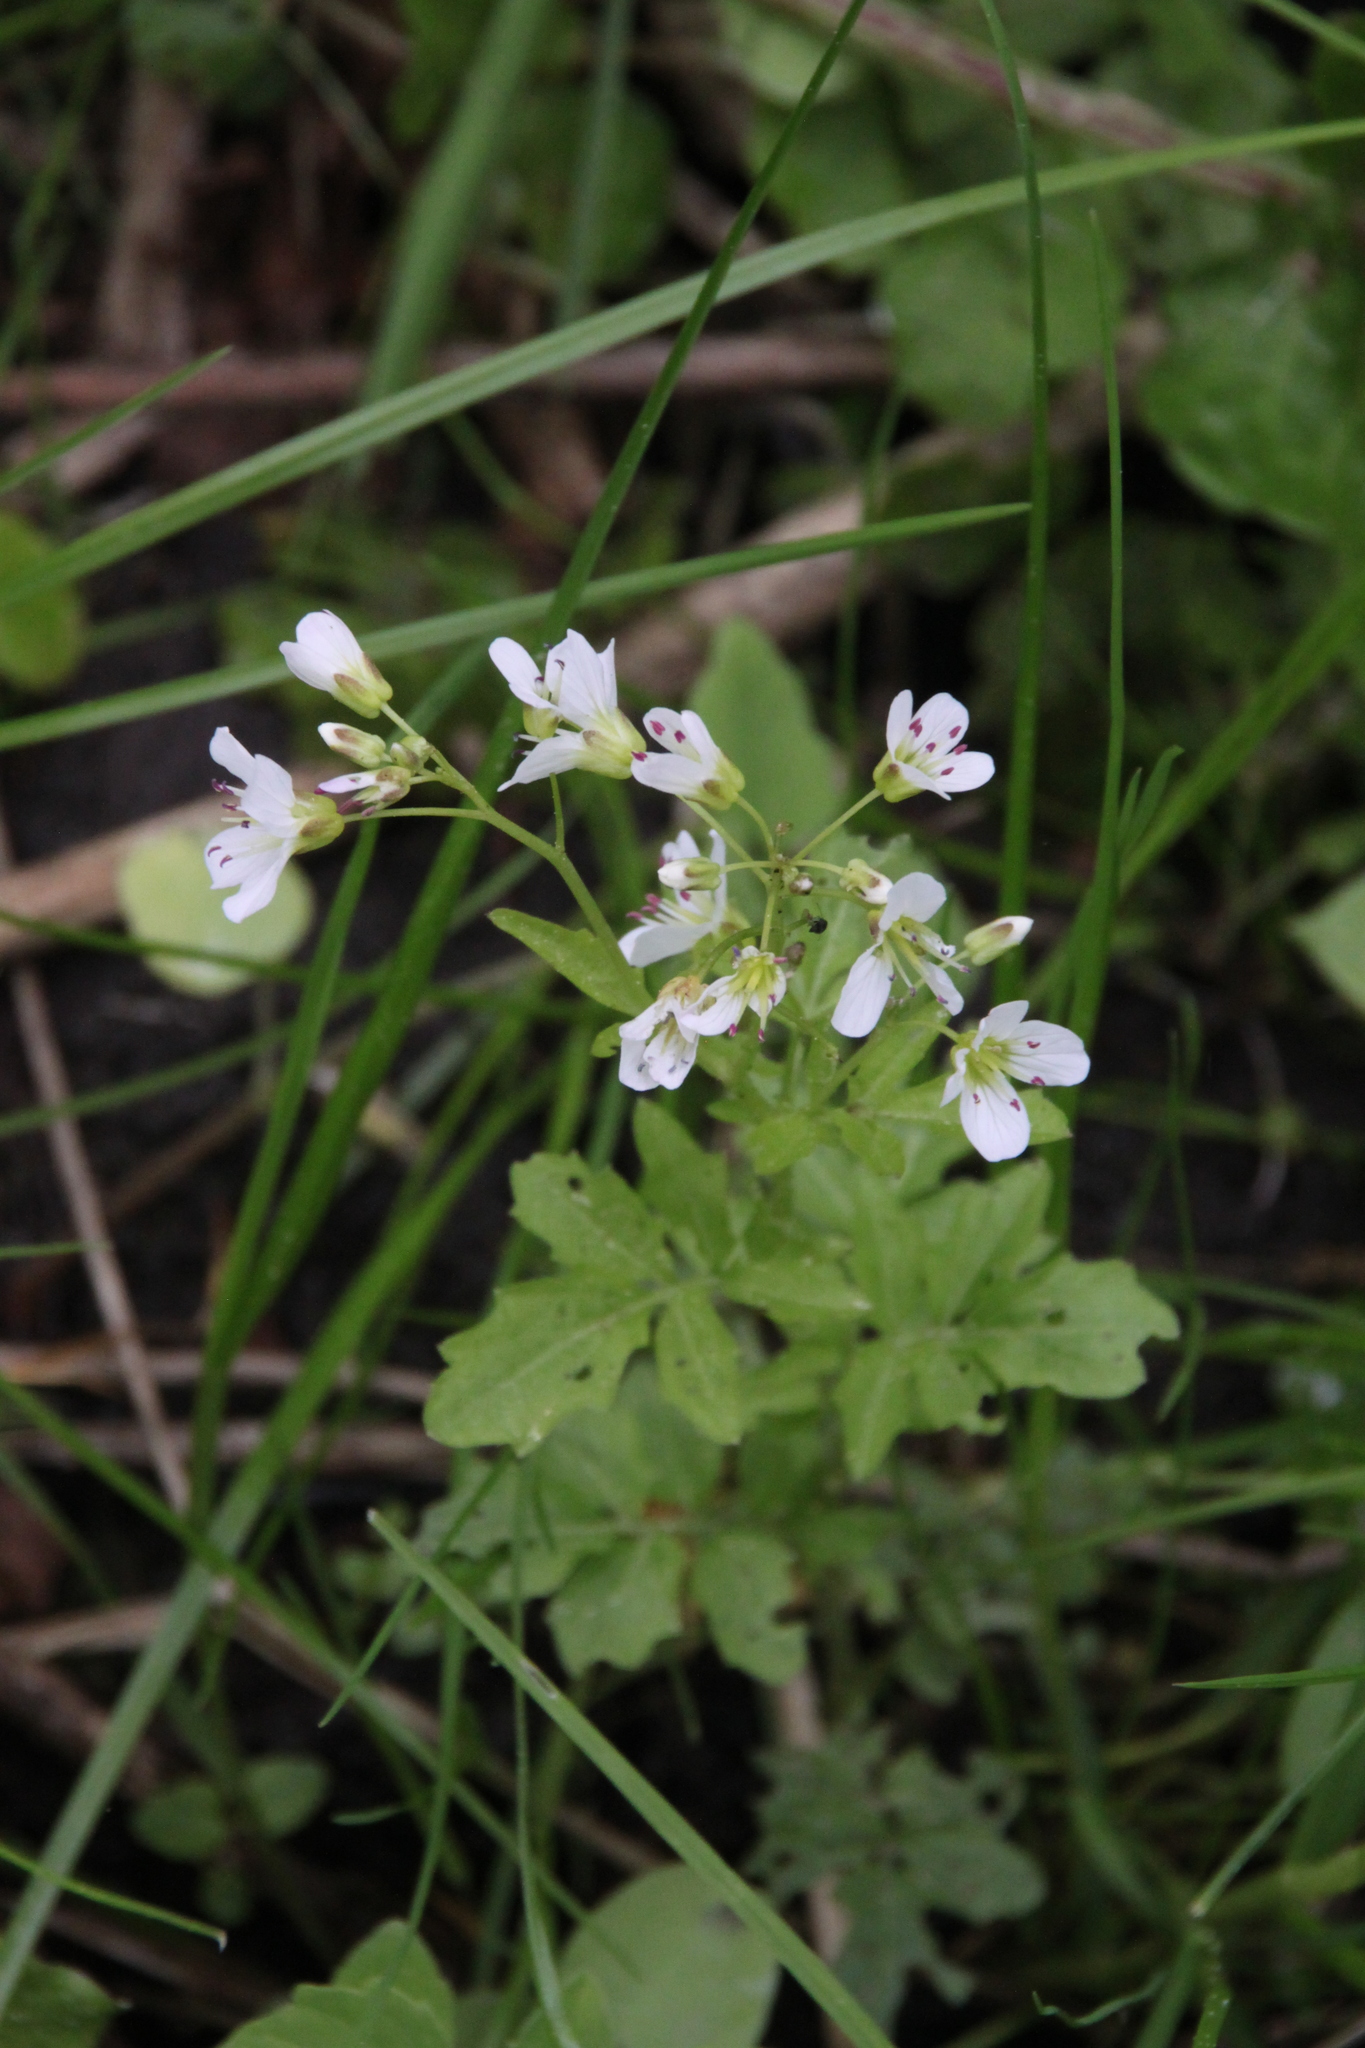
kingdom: Plantae
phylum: Tracheophyta
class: Magnoliopsida
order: Brassicales
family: Brassicaceae
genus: Cardamine
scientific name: Cardamine amara
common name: Large bitter-cress
